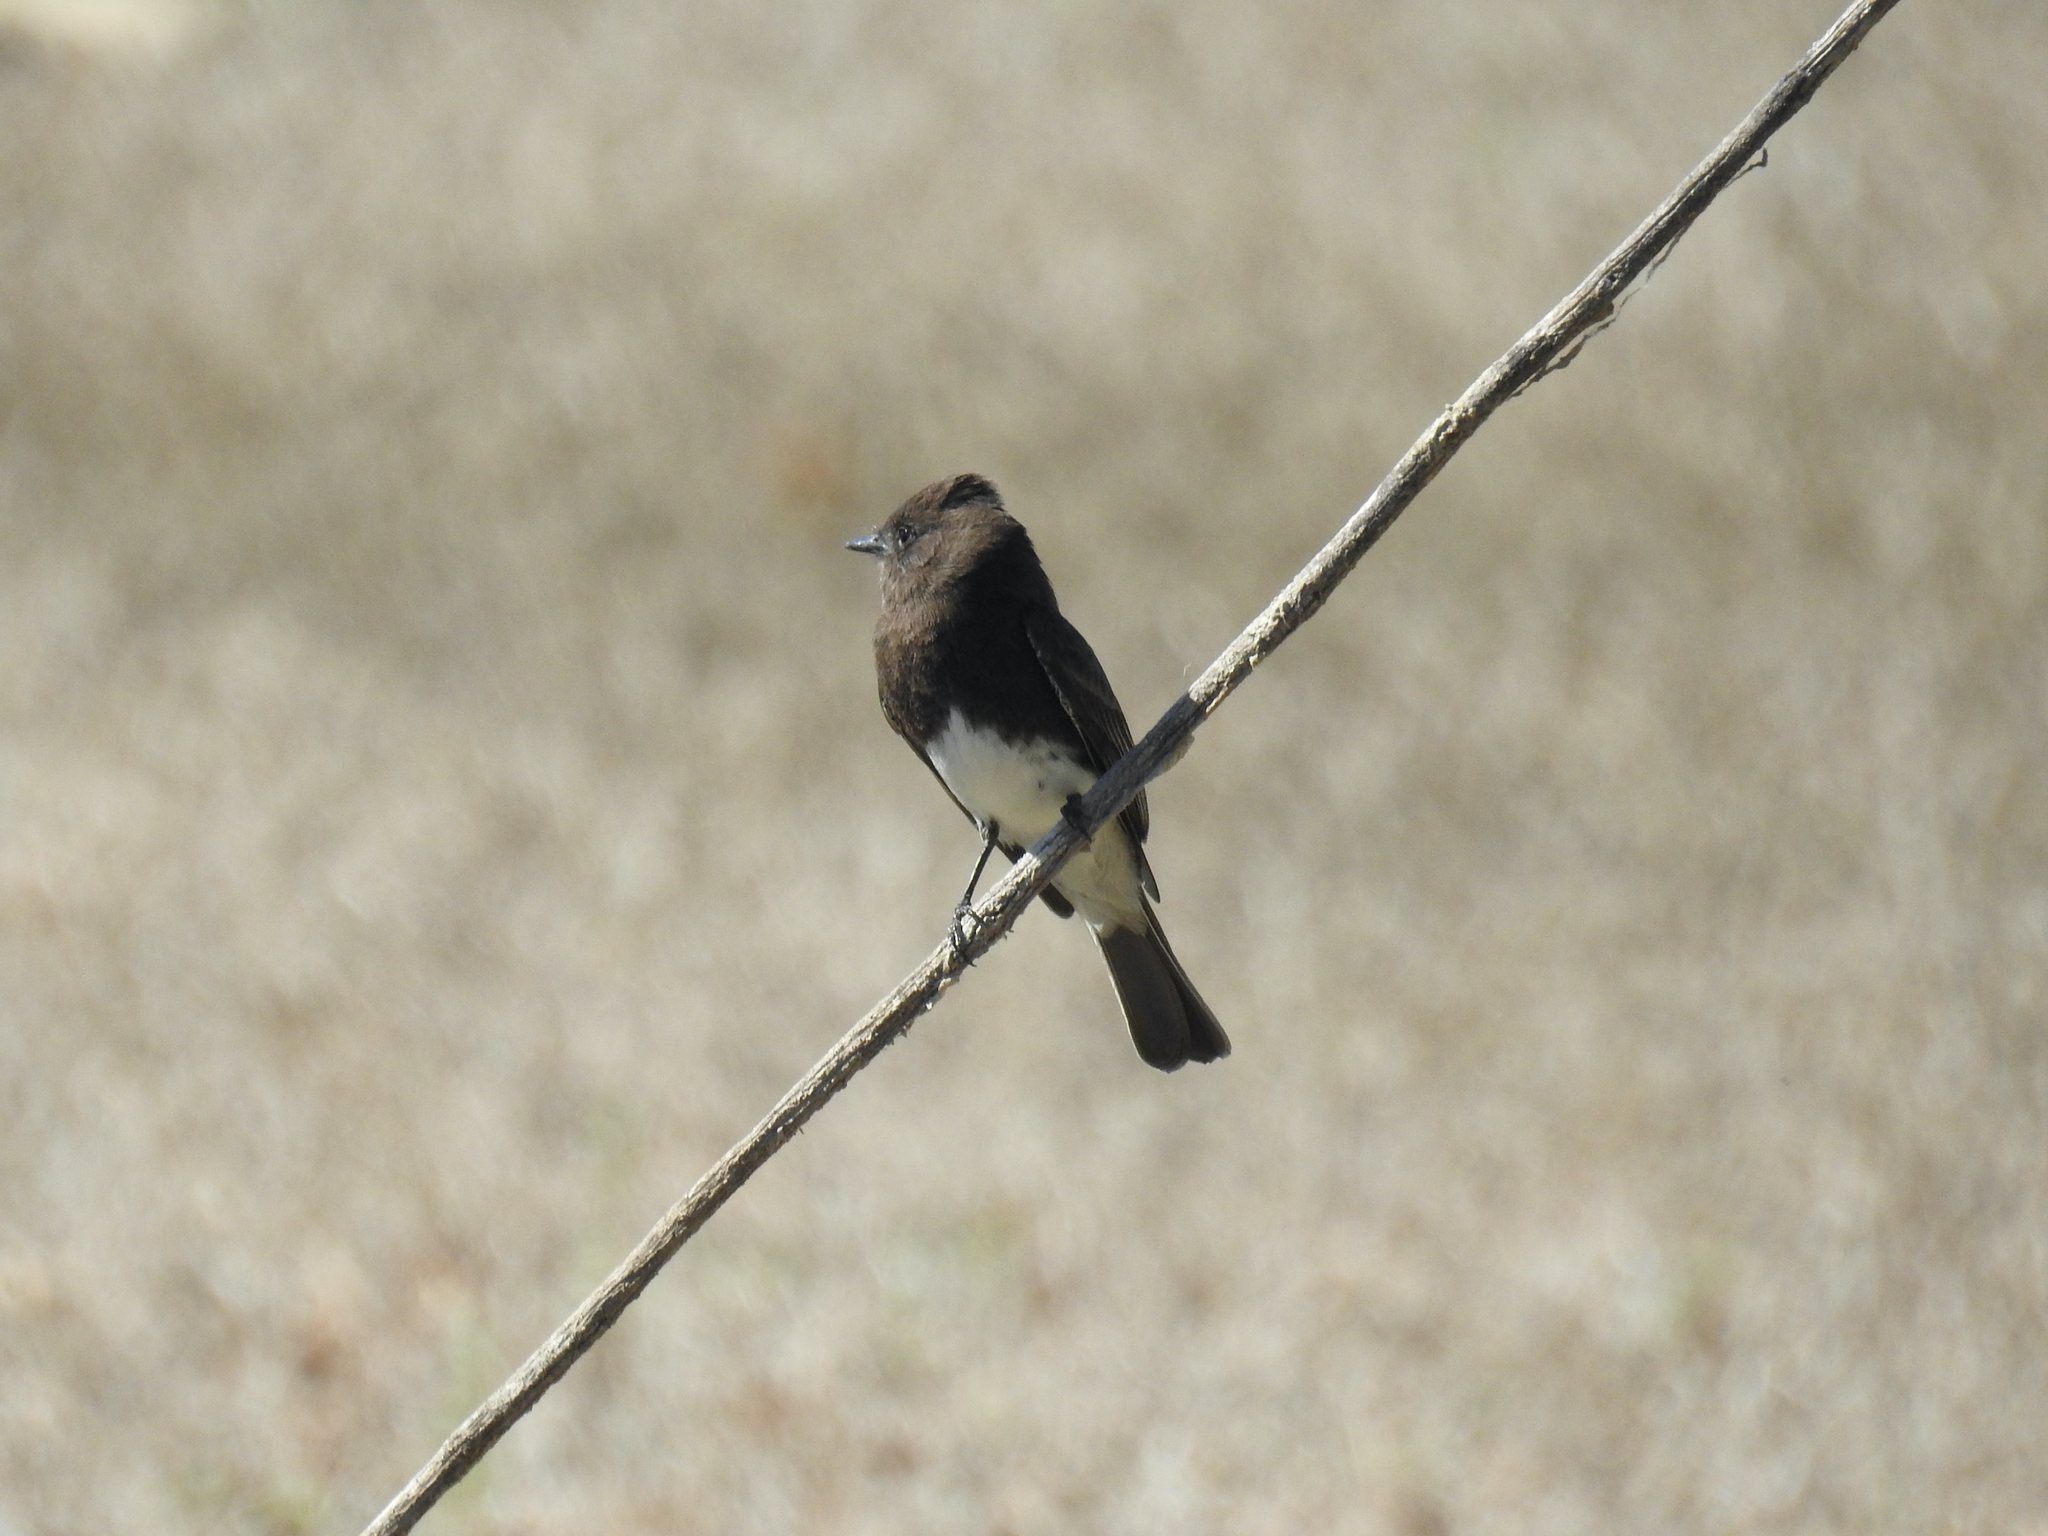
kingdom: Animalia
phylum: Chordata
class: Aves
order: Passeriformes
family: Tyrannidae
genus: Sayornis
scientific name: Sayornis nigricans
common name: Black phoebe
